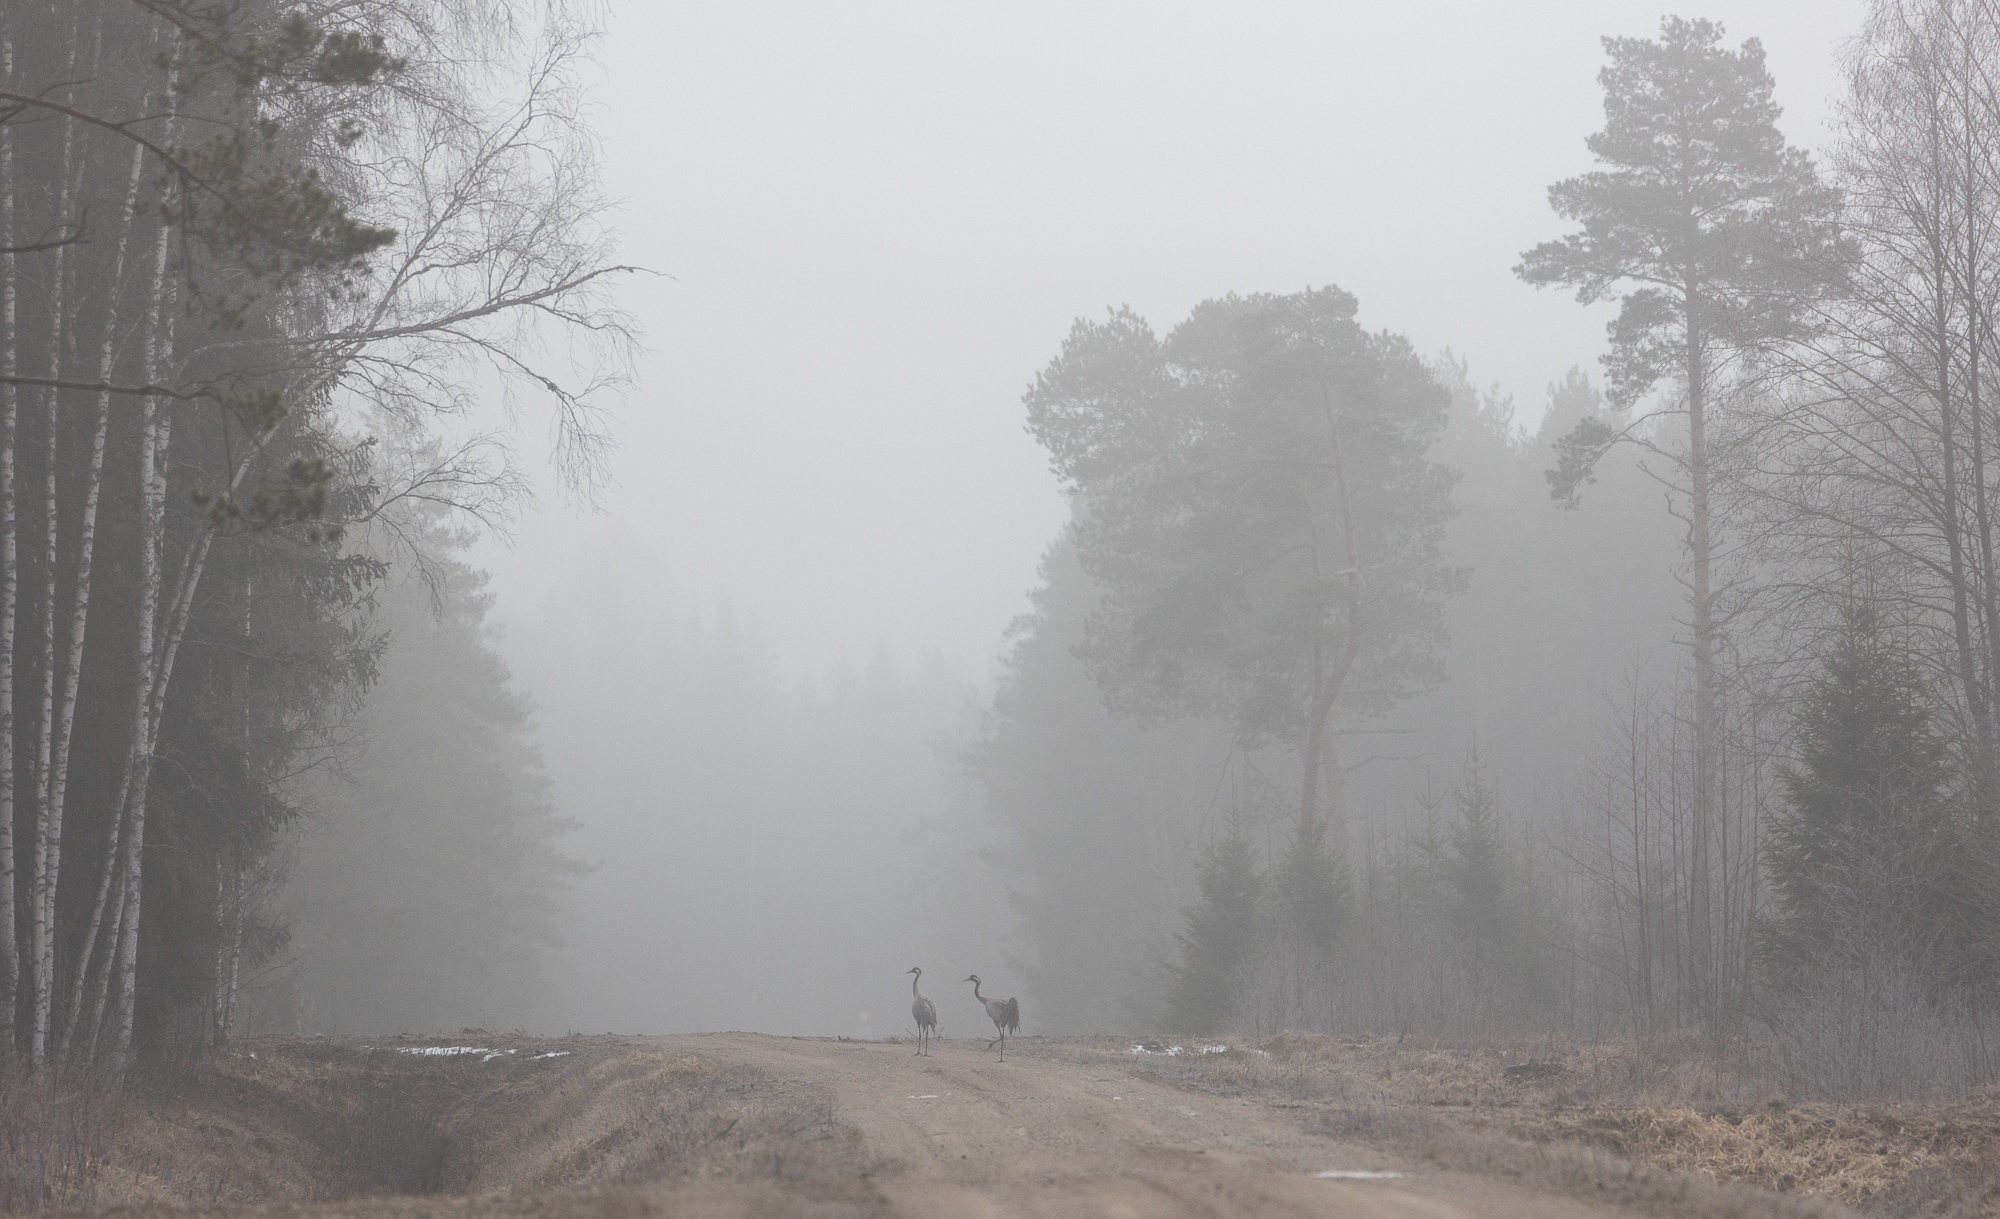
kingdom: Animalia
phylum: Chordata
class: Aves
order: Gruiformes
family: Gruidae
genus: Grus
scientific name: Grus grus
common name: Common crane
